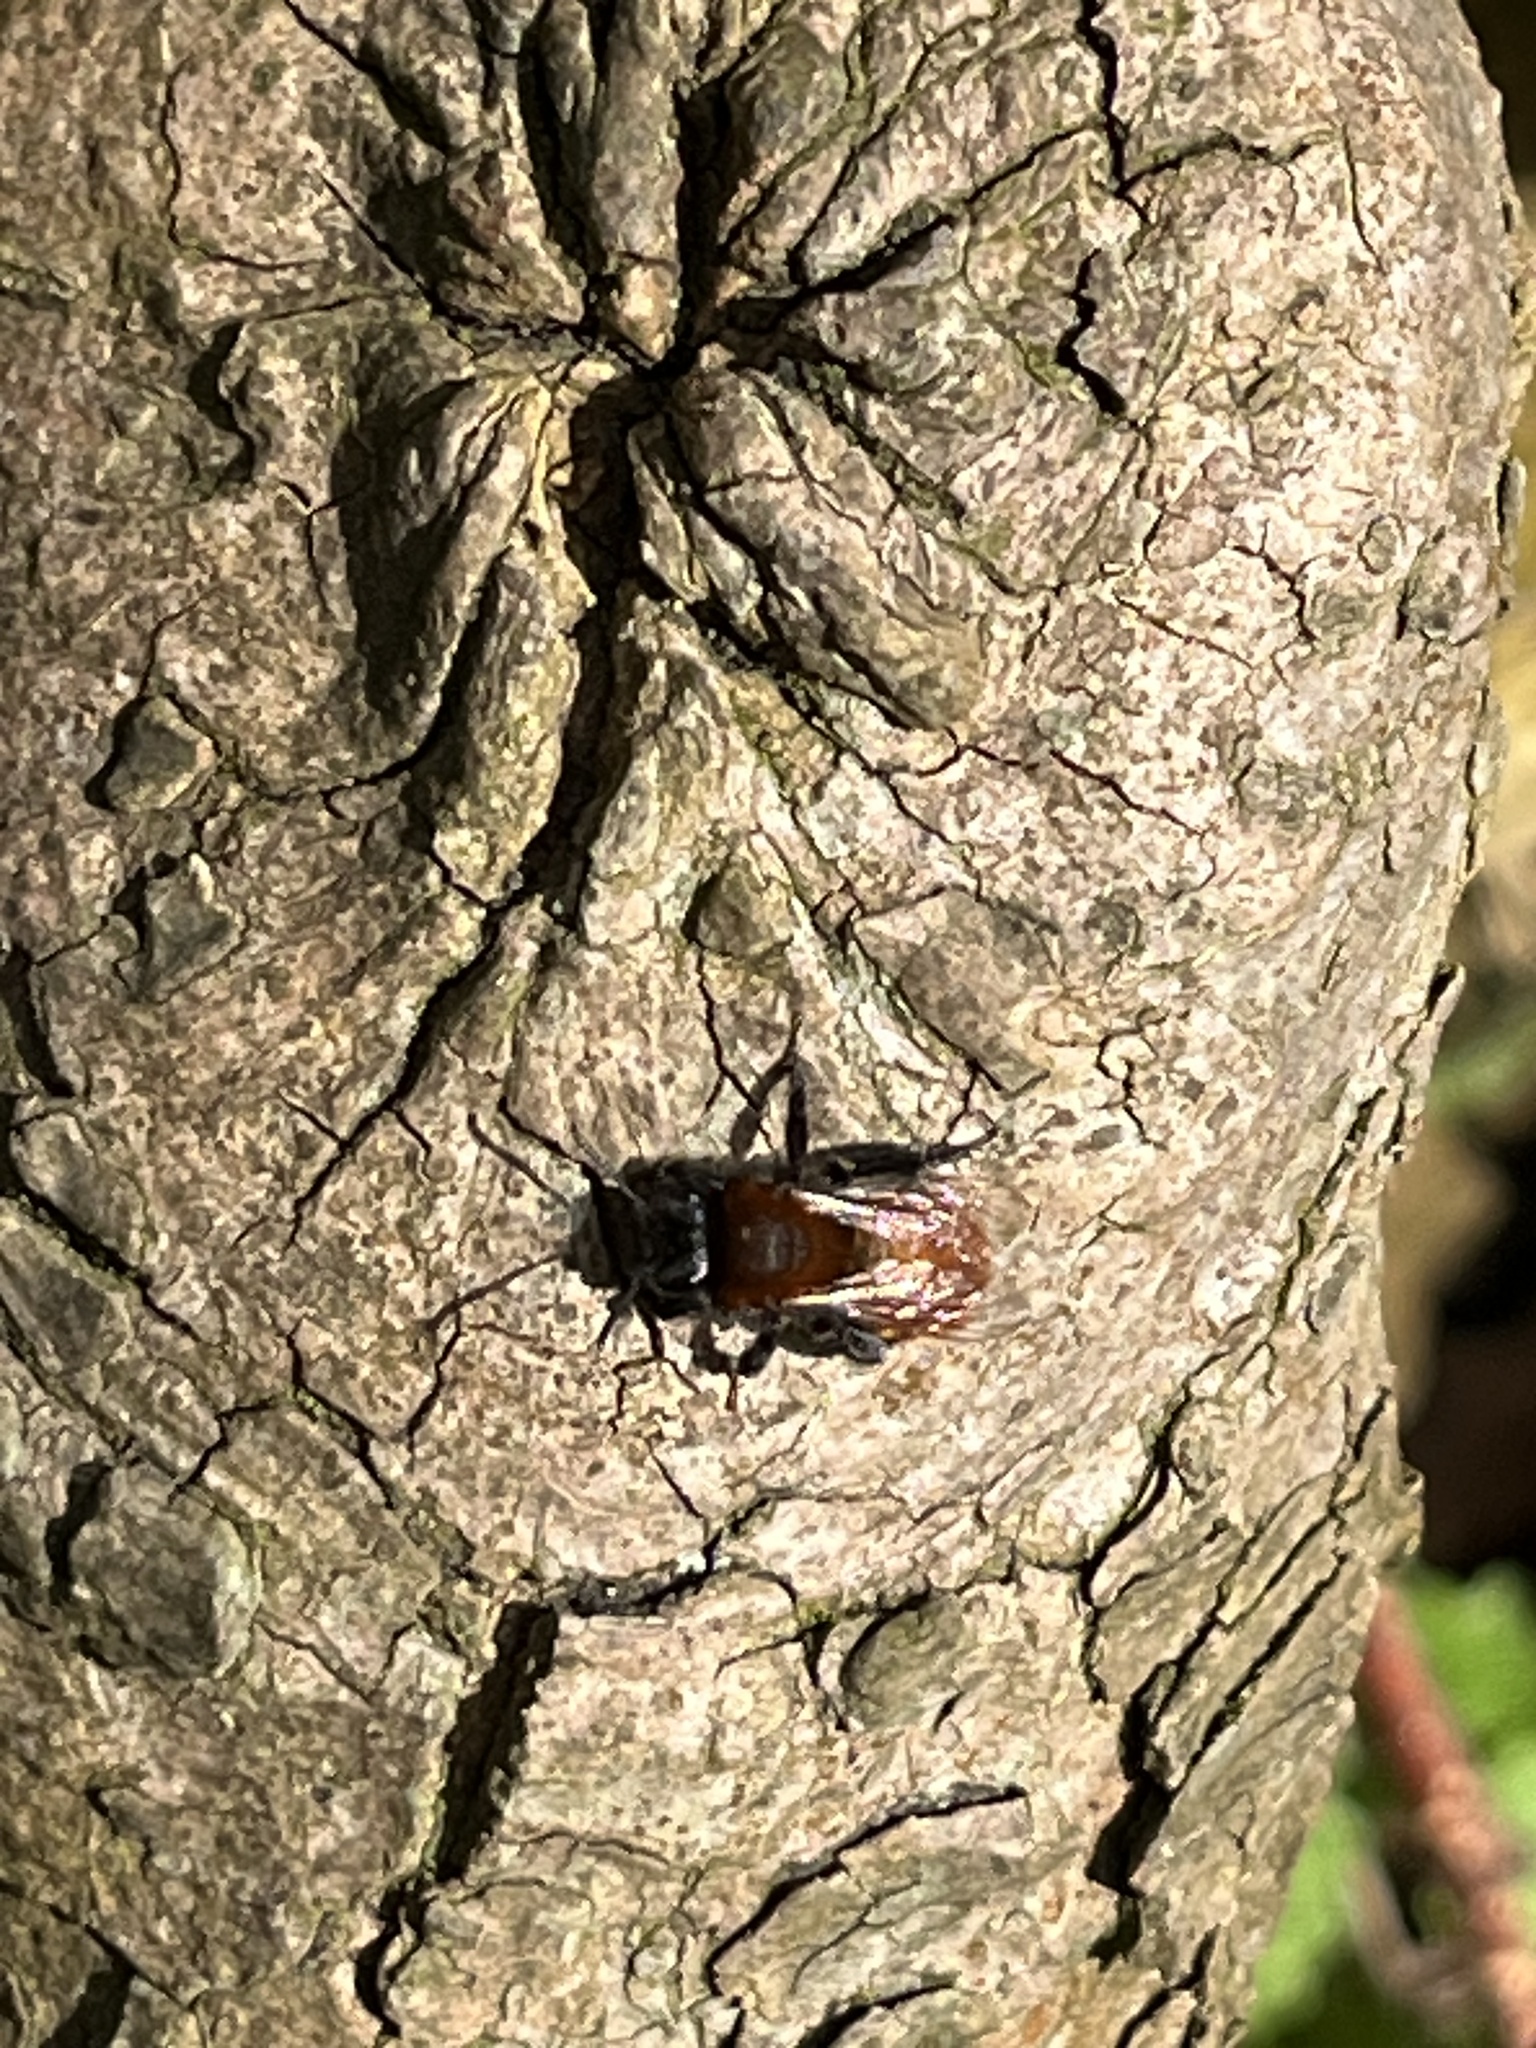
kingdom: Animalia
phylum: Arthropoda
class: Insecta
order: Hymenoptera
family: Andrenidae
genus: Andrena
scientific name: Andrena fulva
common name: Tawny mining bee
